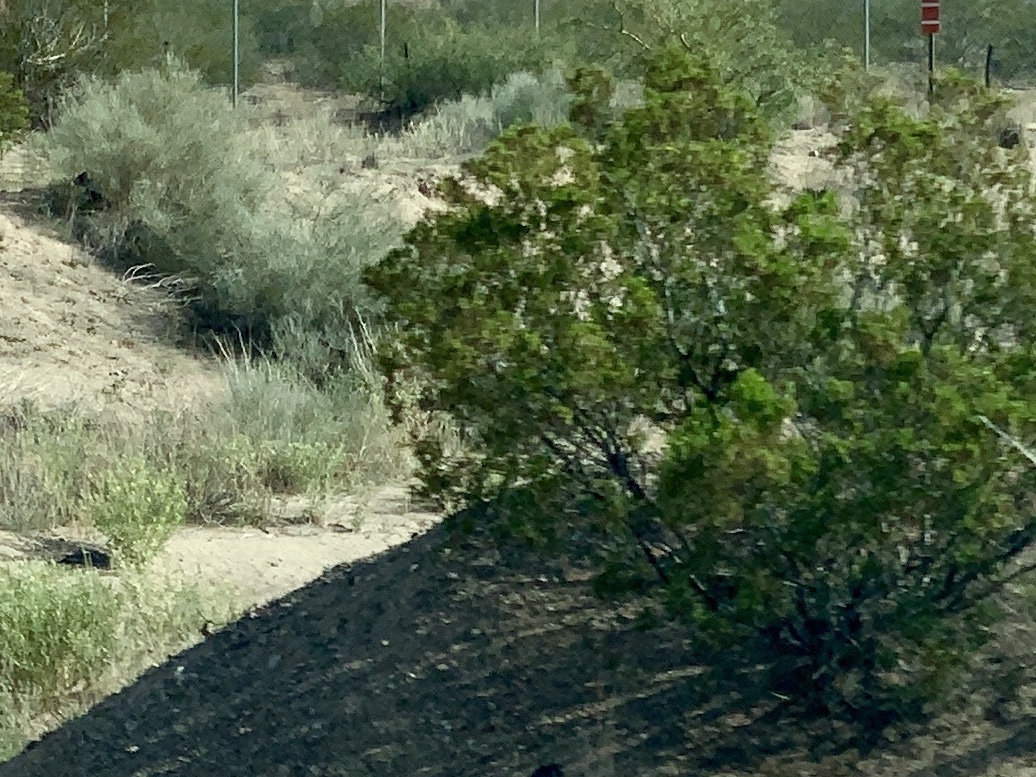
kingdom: Plantae
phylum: Tracheophyta
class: Magnoliopsida
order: Zygophyllales
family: Zygophyllaceae
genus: Larrea
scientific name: Larrea tridentata
